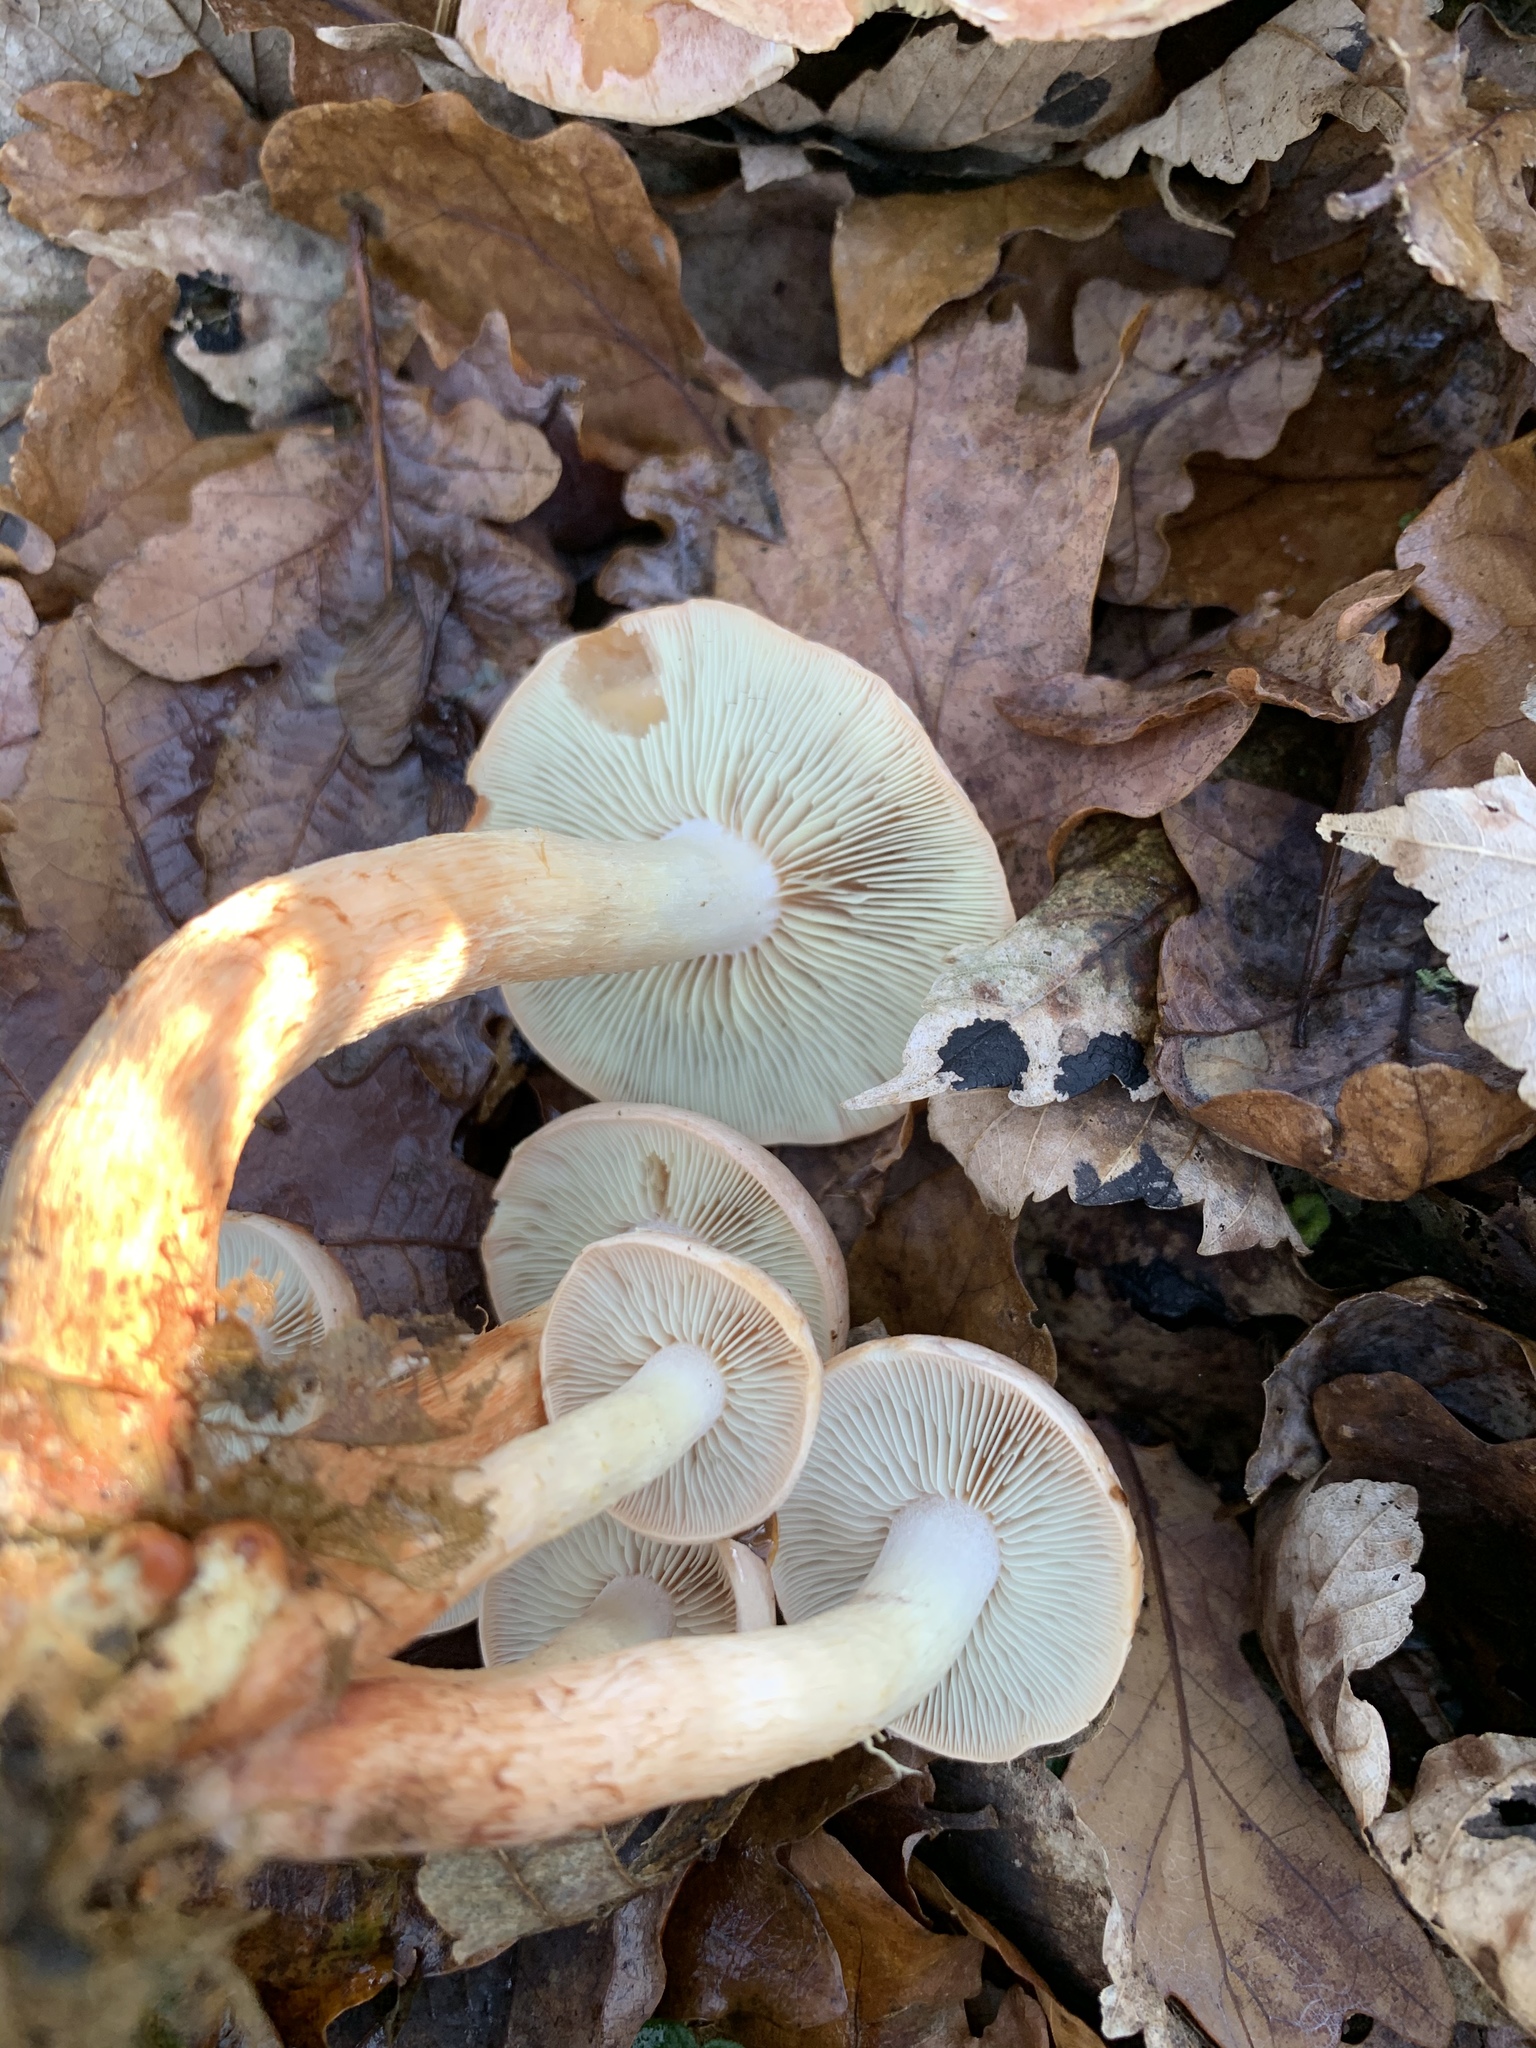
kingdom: Fungi
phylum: Basidiomycota
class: Agaricomycetes
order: Agaricales
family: Strophariaceae
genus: Hypholoma
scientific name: Hypholoma lateritium
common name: Brick caps
